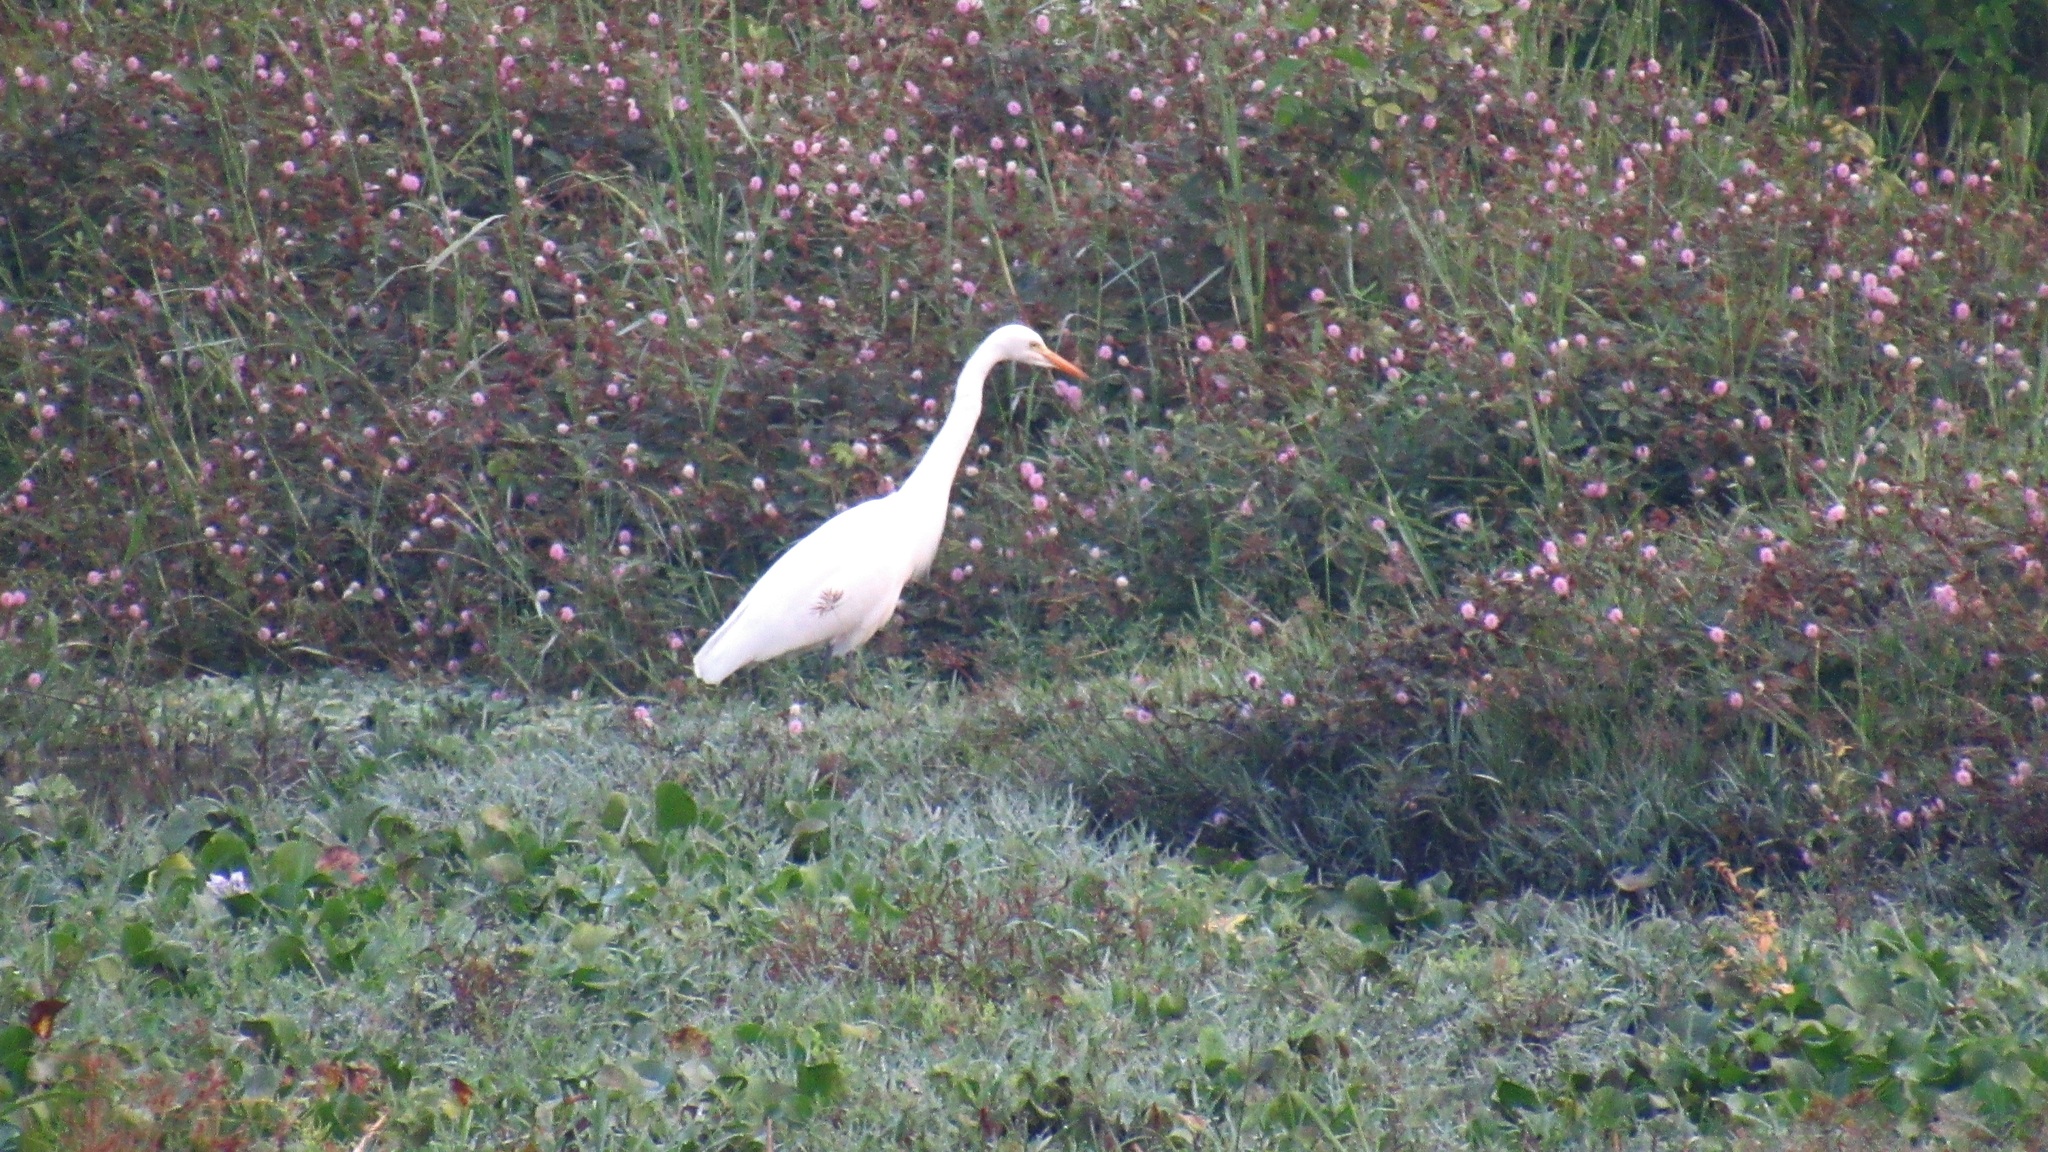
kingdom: Animalia
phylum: Chordata
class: Aves
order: Pelecaniformes
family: Ardeidae
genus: Egretta
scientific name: Egretta intermedia
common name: Intermediate egret
